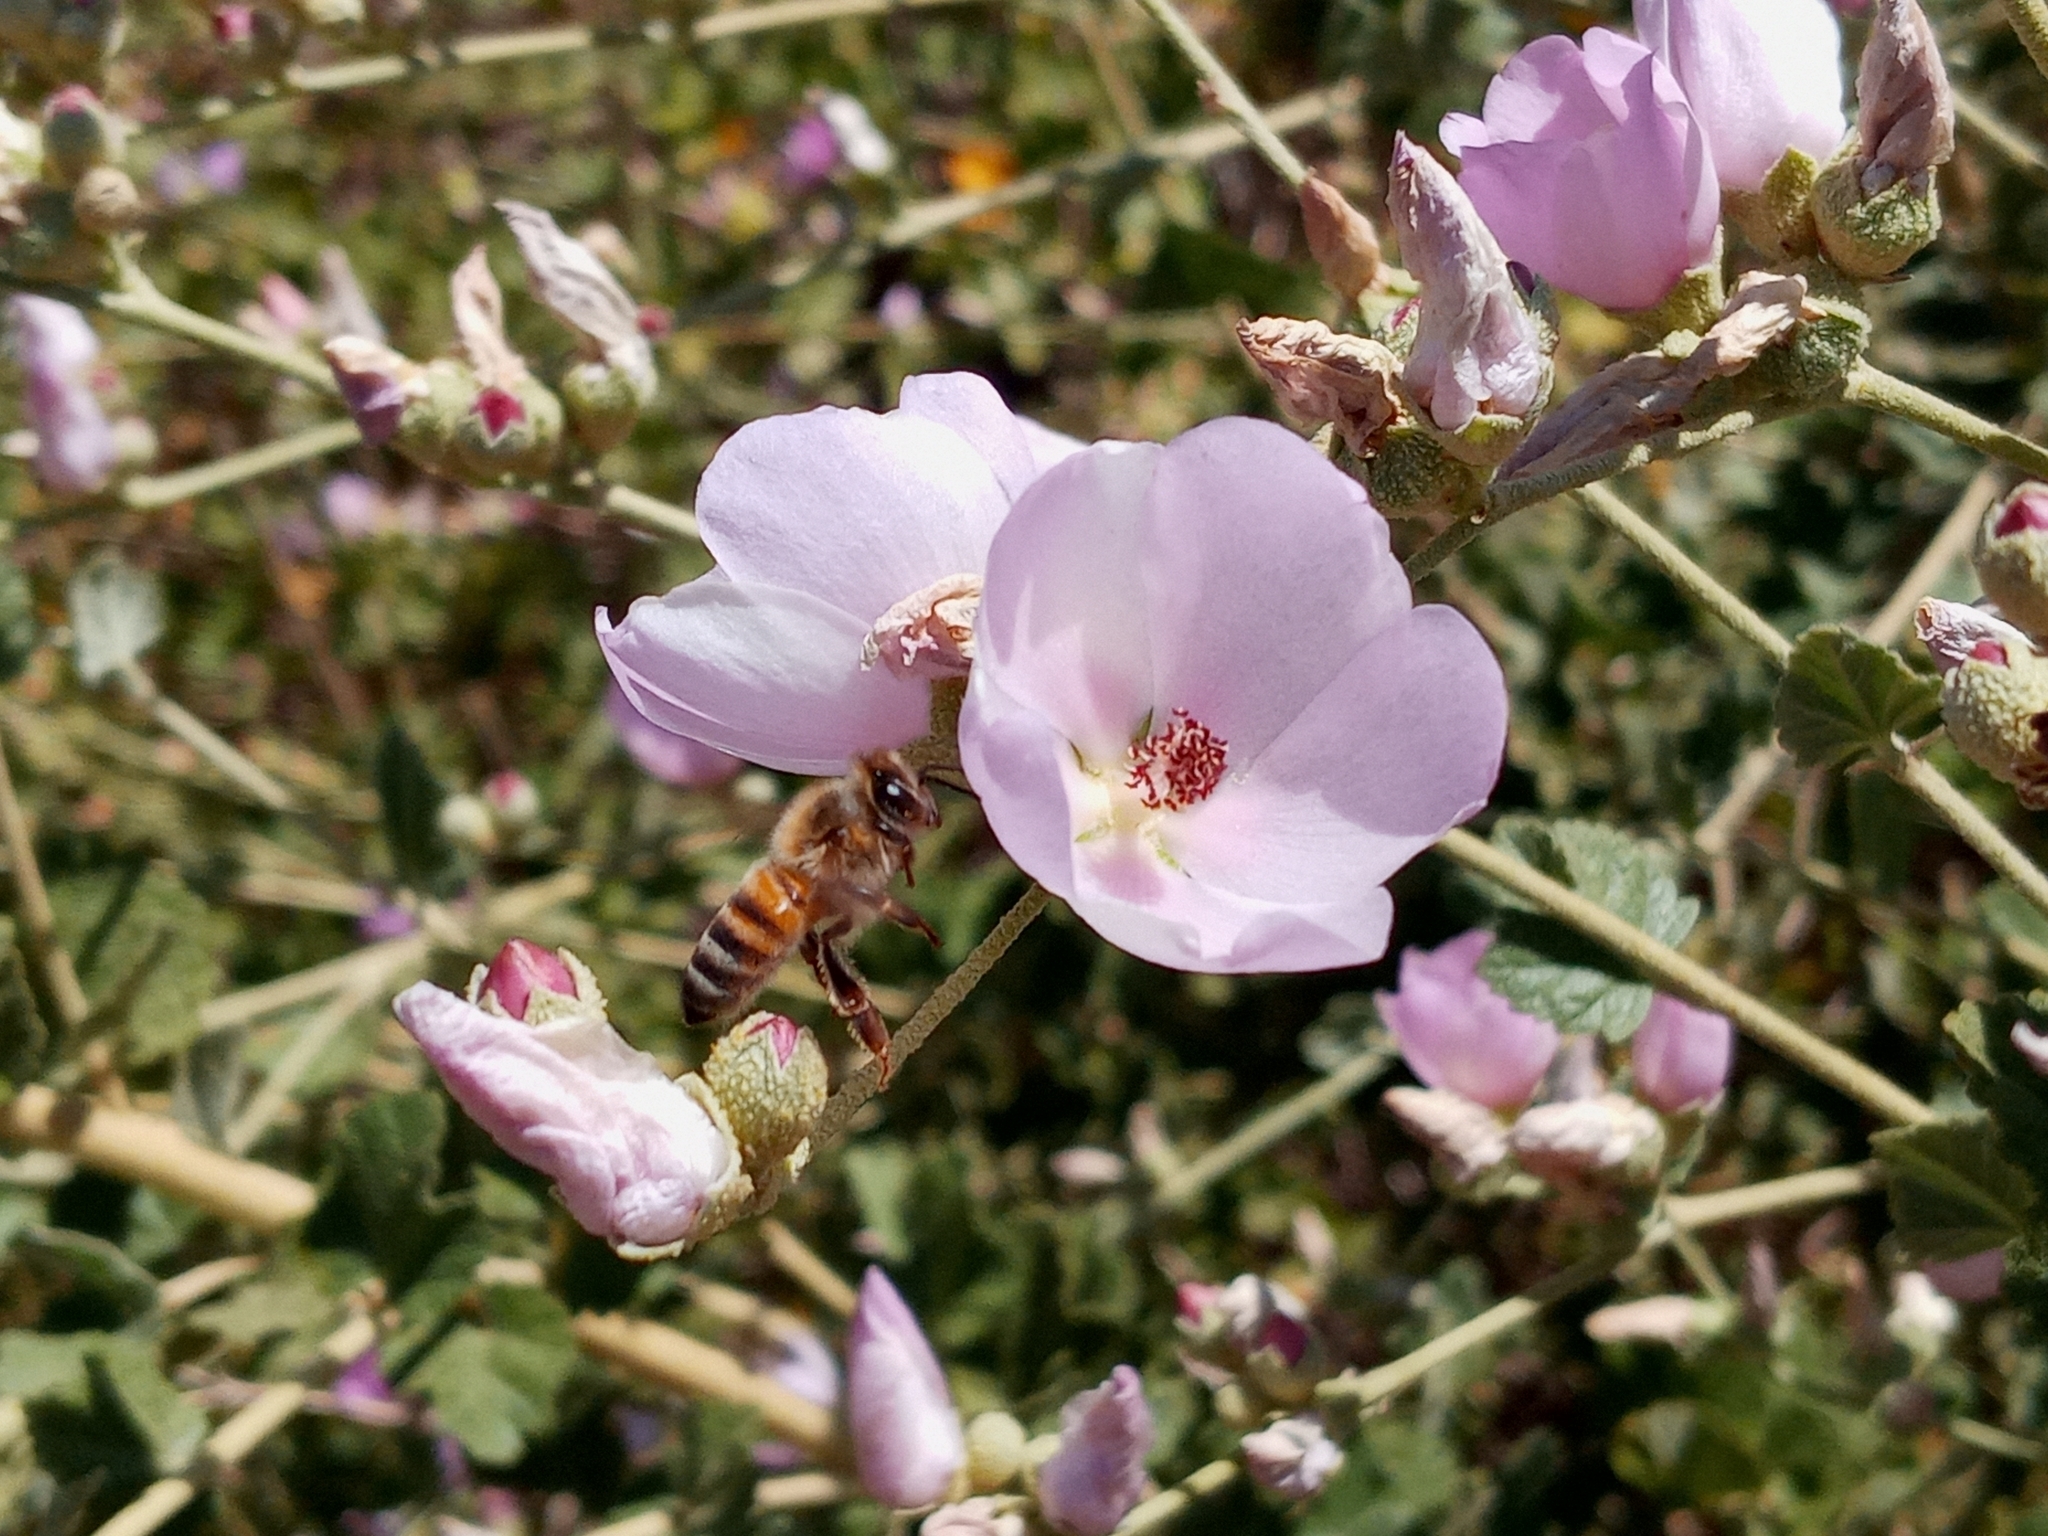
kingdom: Plantae
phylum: Tracheophyta
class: Magnoliopsida
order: Malvales
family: Malvaceae
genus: Malacothamnus
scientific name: Malacothamnus fasciculatus
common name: Sant cruz island bush-mallow
